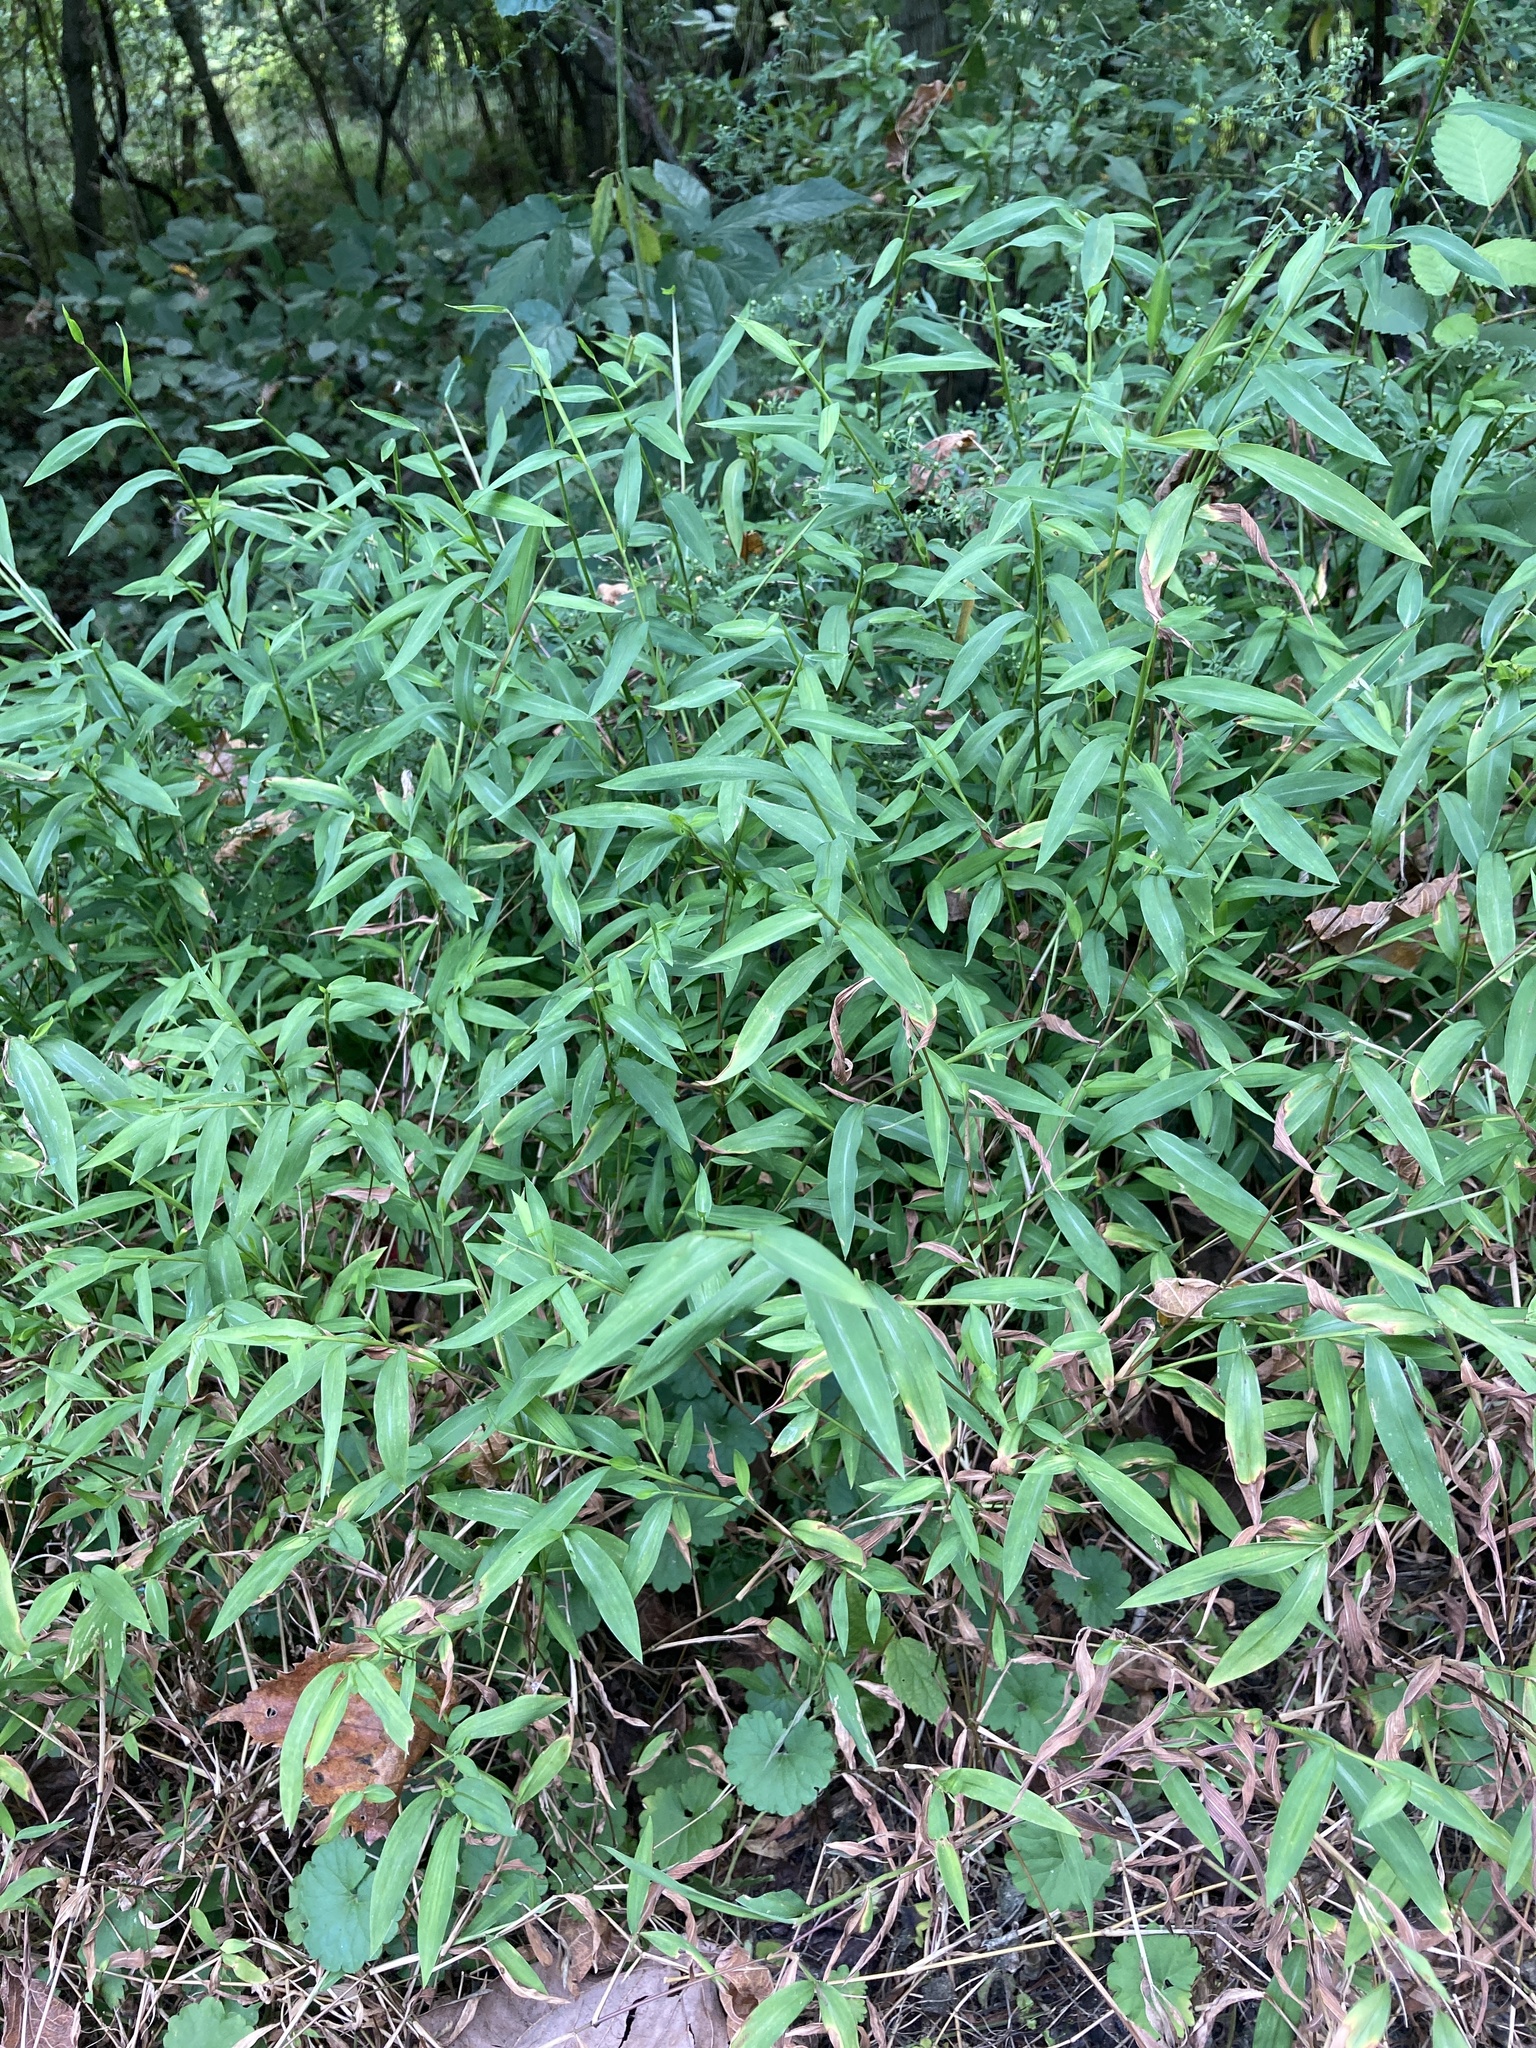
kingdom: Plantae
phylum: Tracheophyta
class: Liliopsida
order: Poales
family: Poaceae
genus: Microstegium
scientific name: Microstegium vimineum
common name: Japanese stiltgrass
